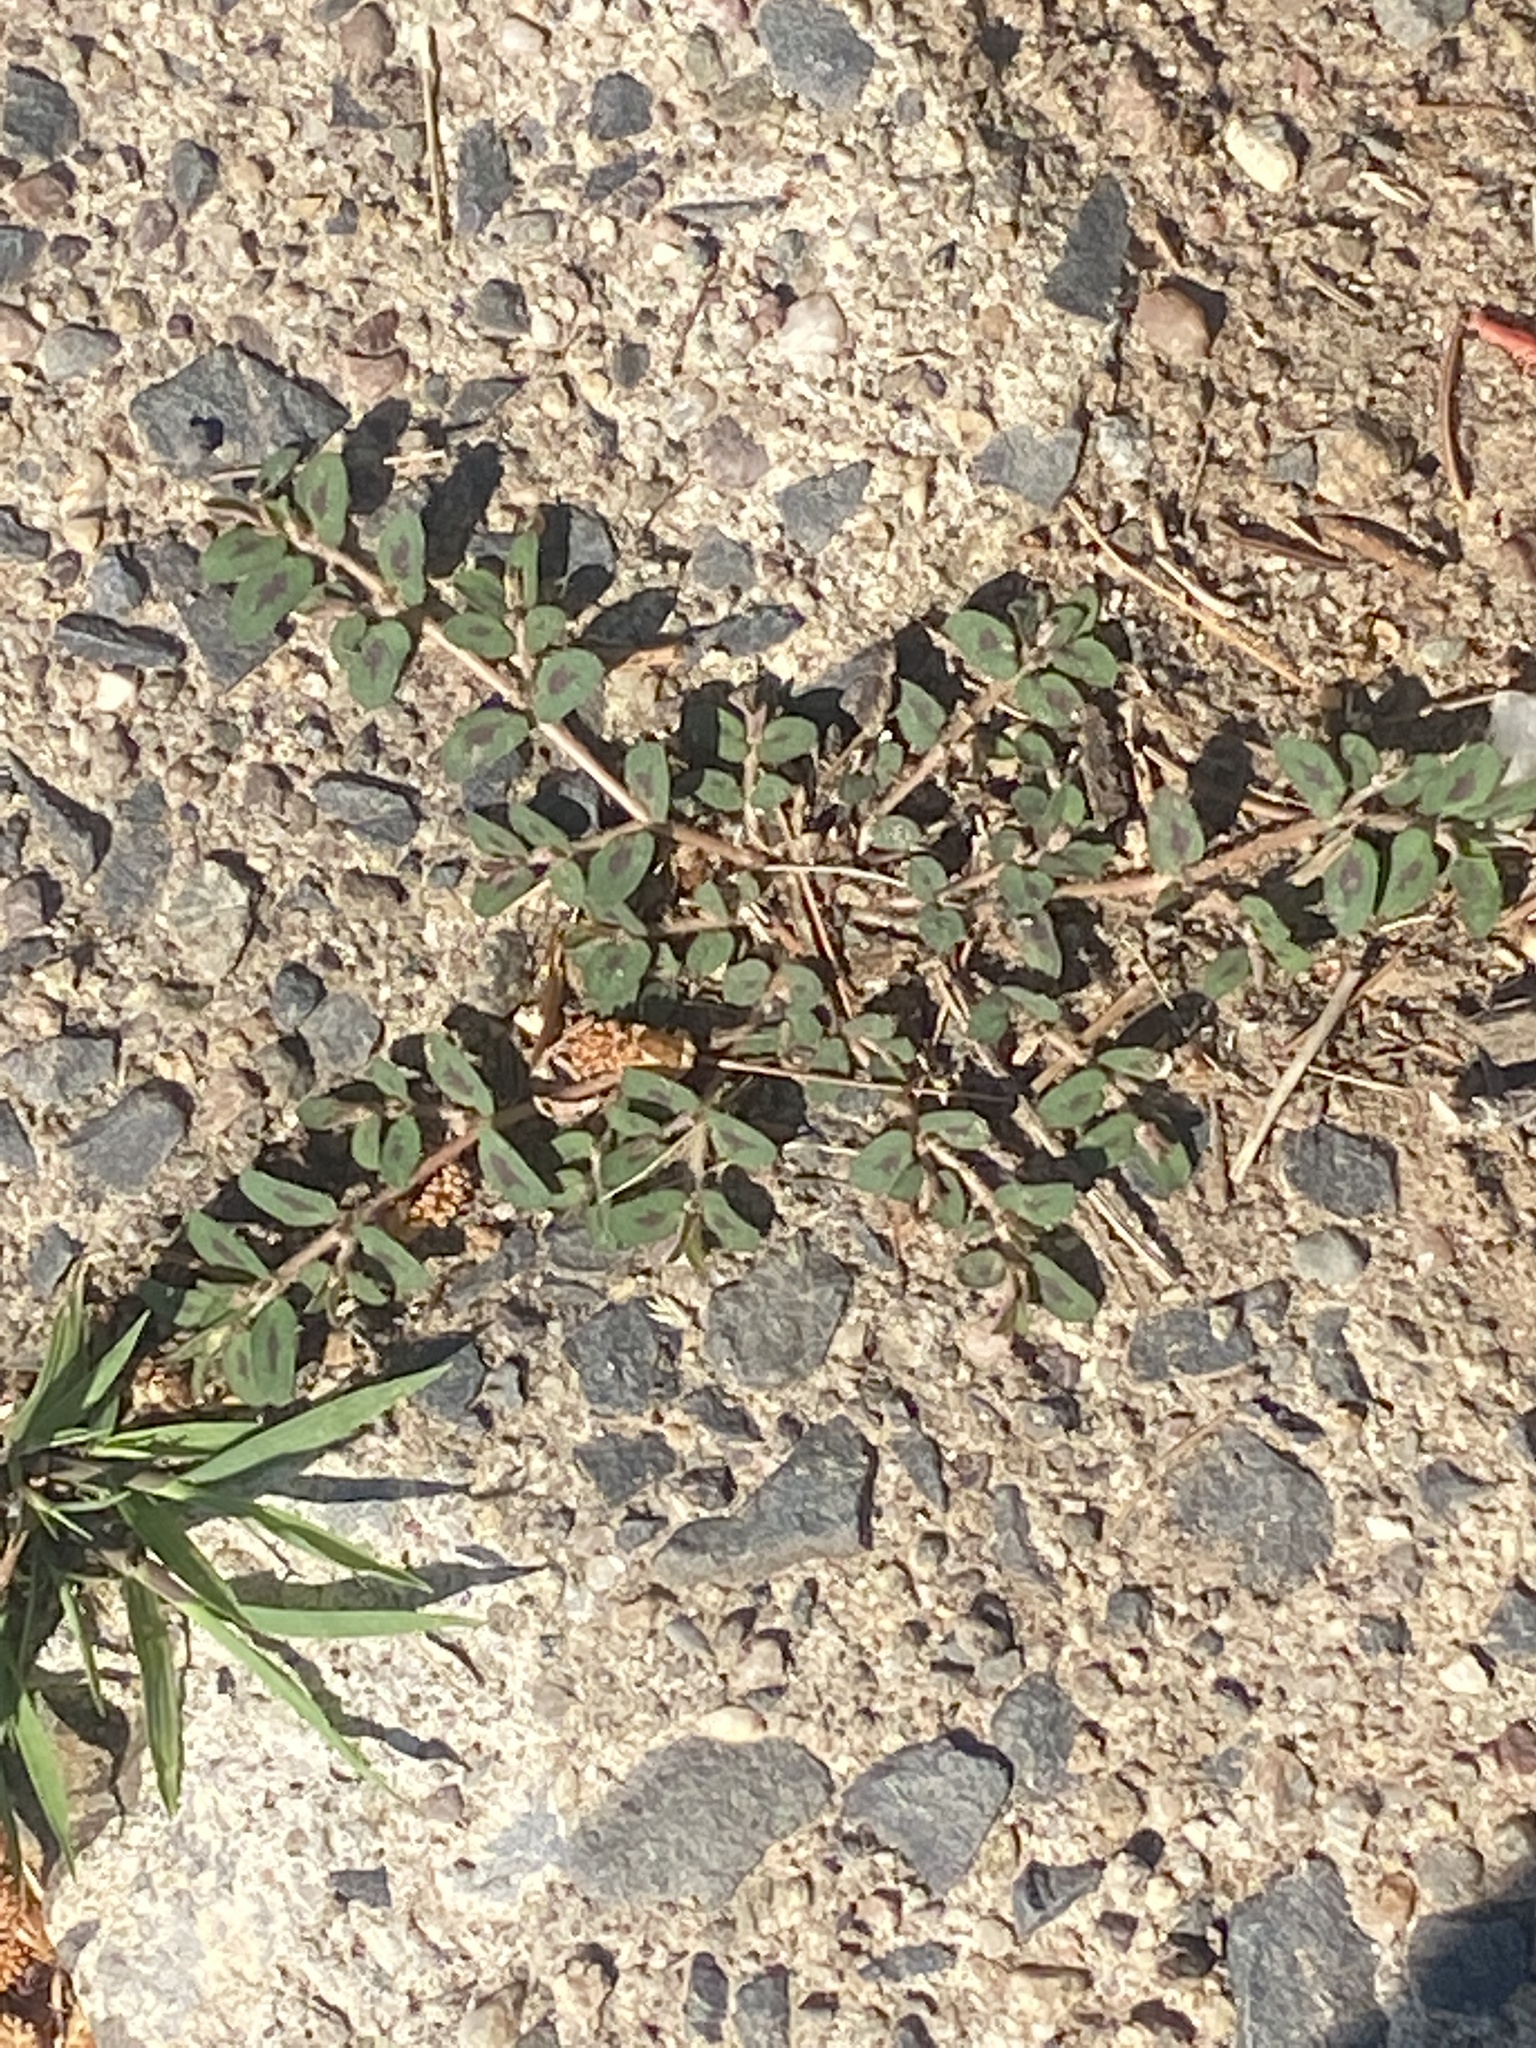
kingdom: Plantae
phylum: Tracheophyta
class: Magnoliopsida
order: Malpighiales
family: Euphorbiaceae
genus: Euphorbia
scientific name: Euphorbia maculata
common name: Spotted spurge
